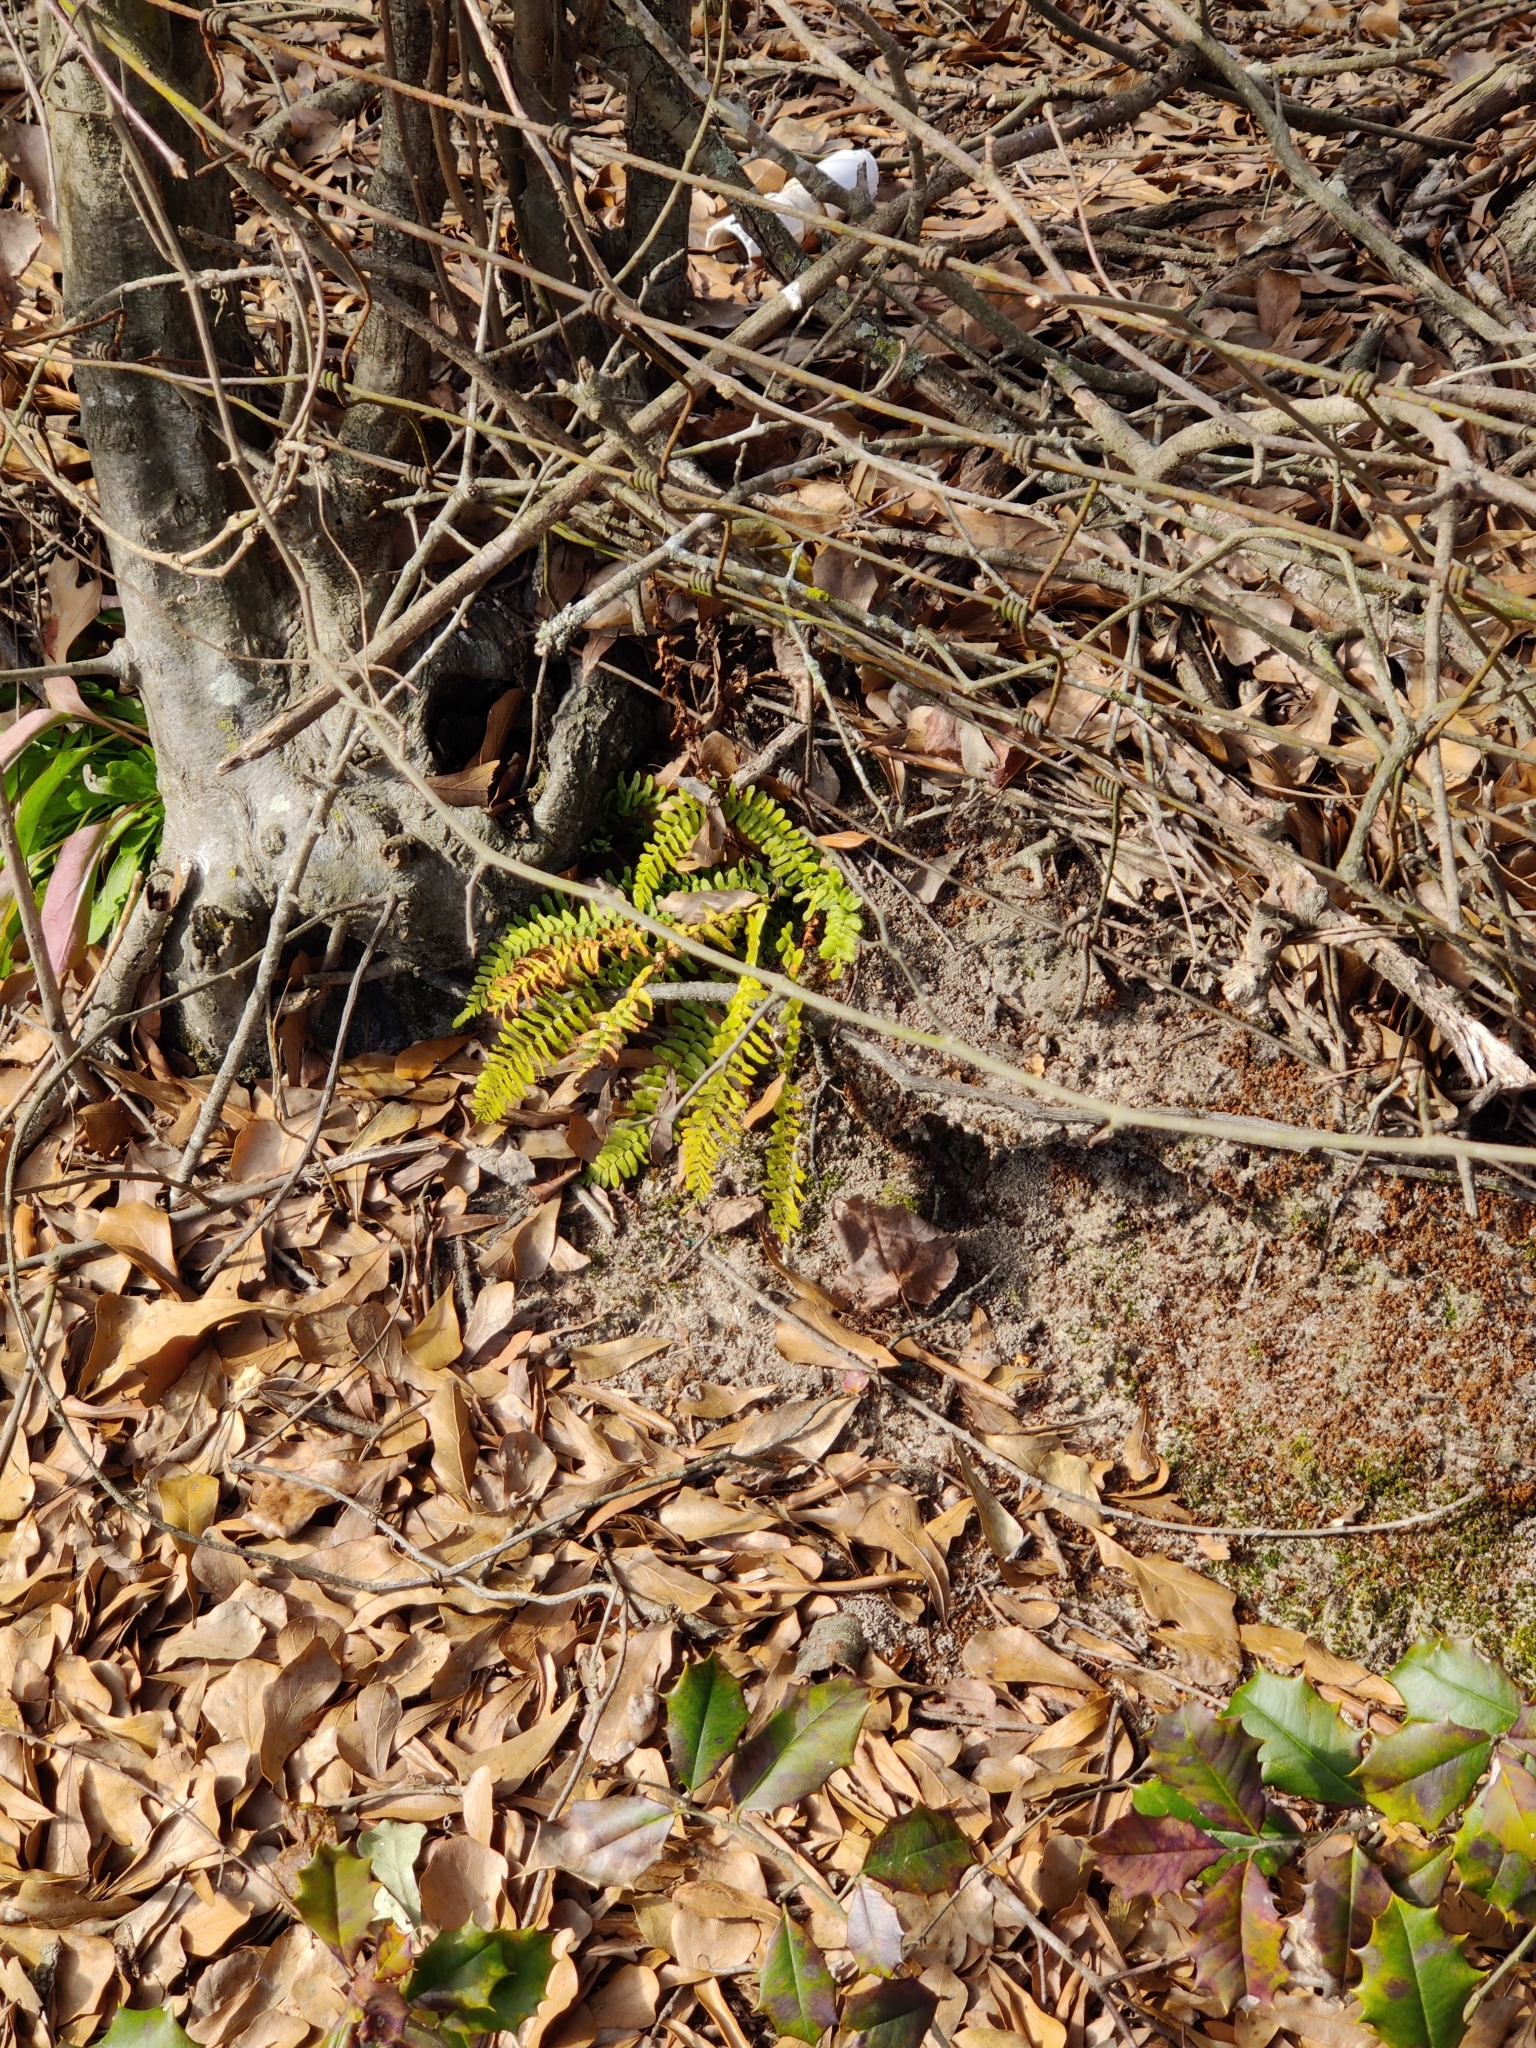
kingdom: Plantae
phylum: Tracheophyta
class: Polypodiopsida
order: Polypodiales
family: Aspleniaceae
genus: Asplenium
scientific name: Asplenium platyneuron
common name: Ebony spleenwort
